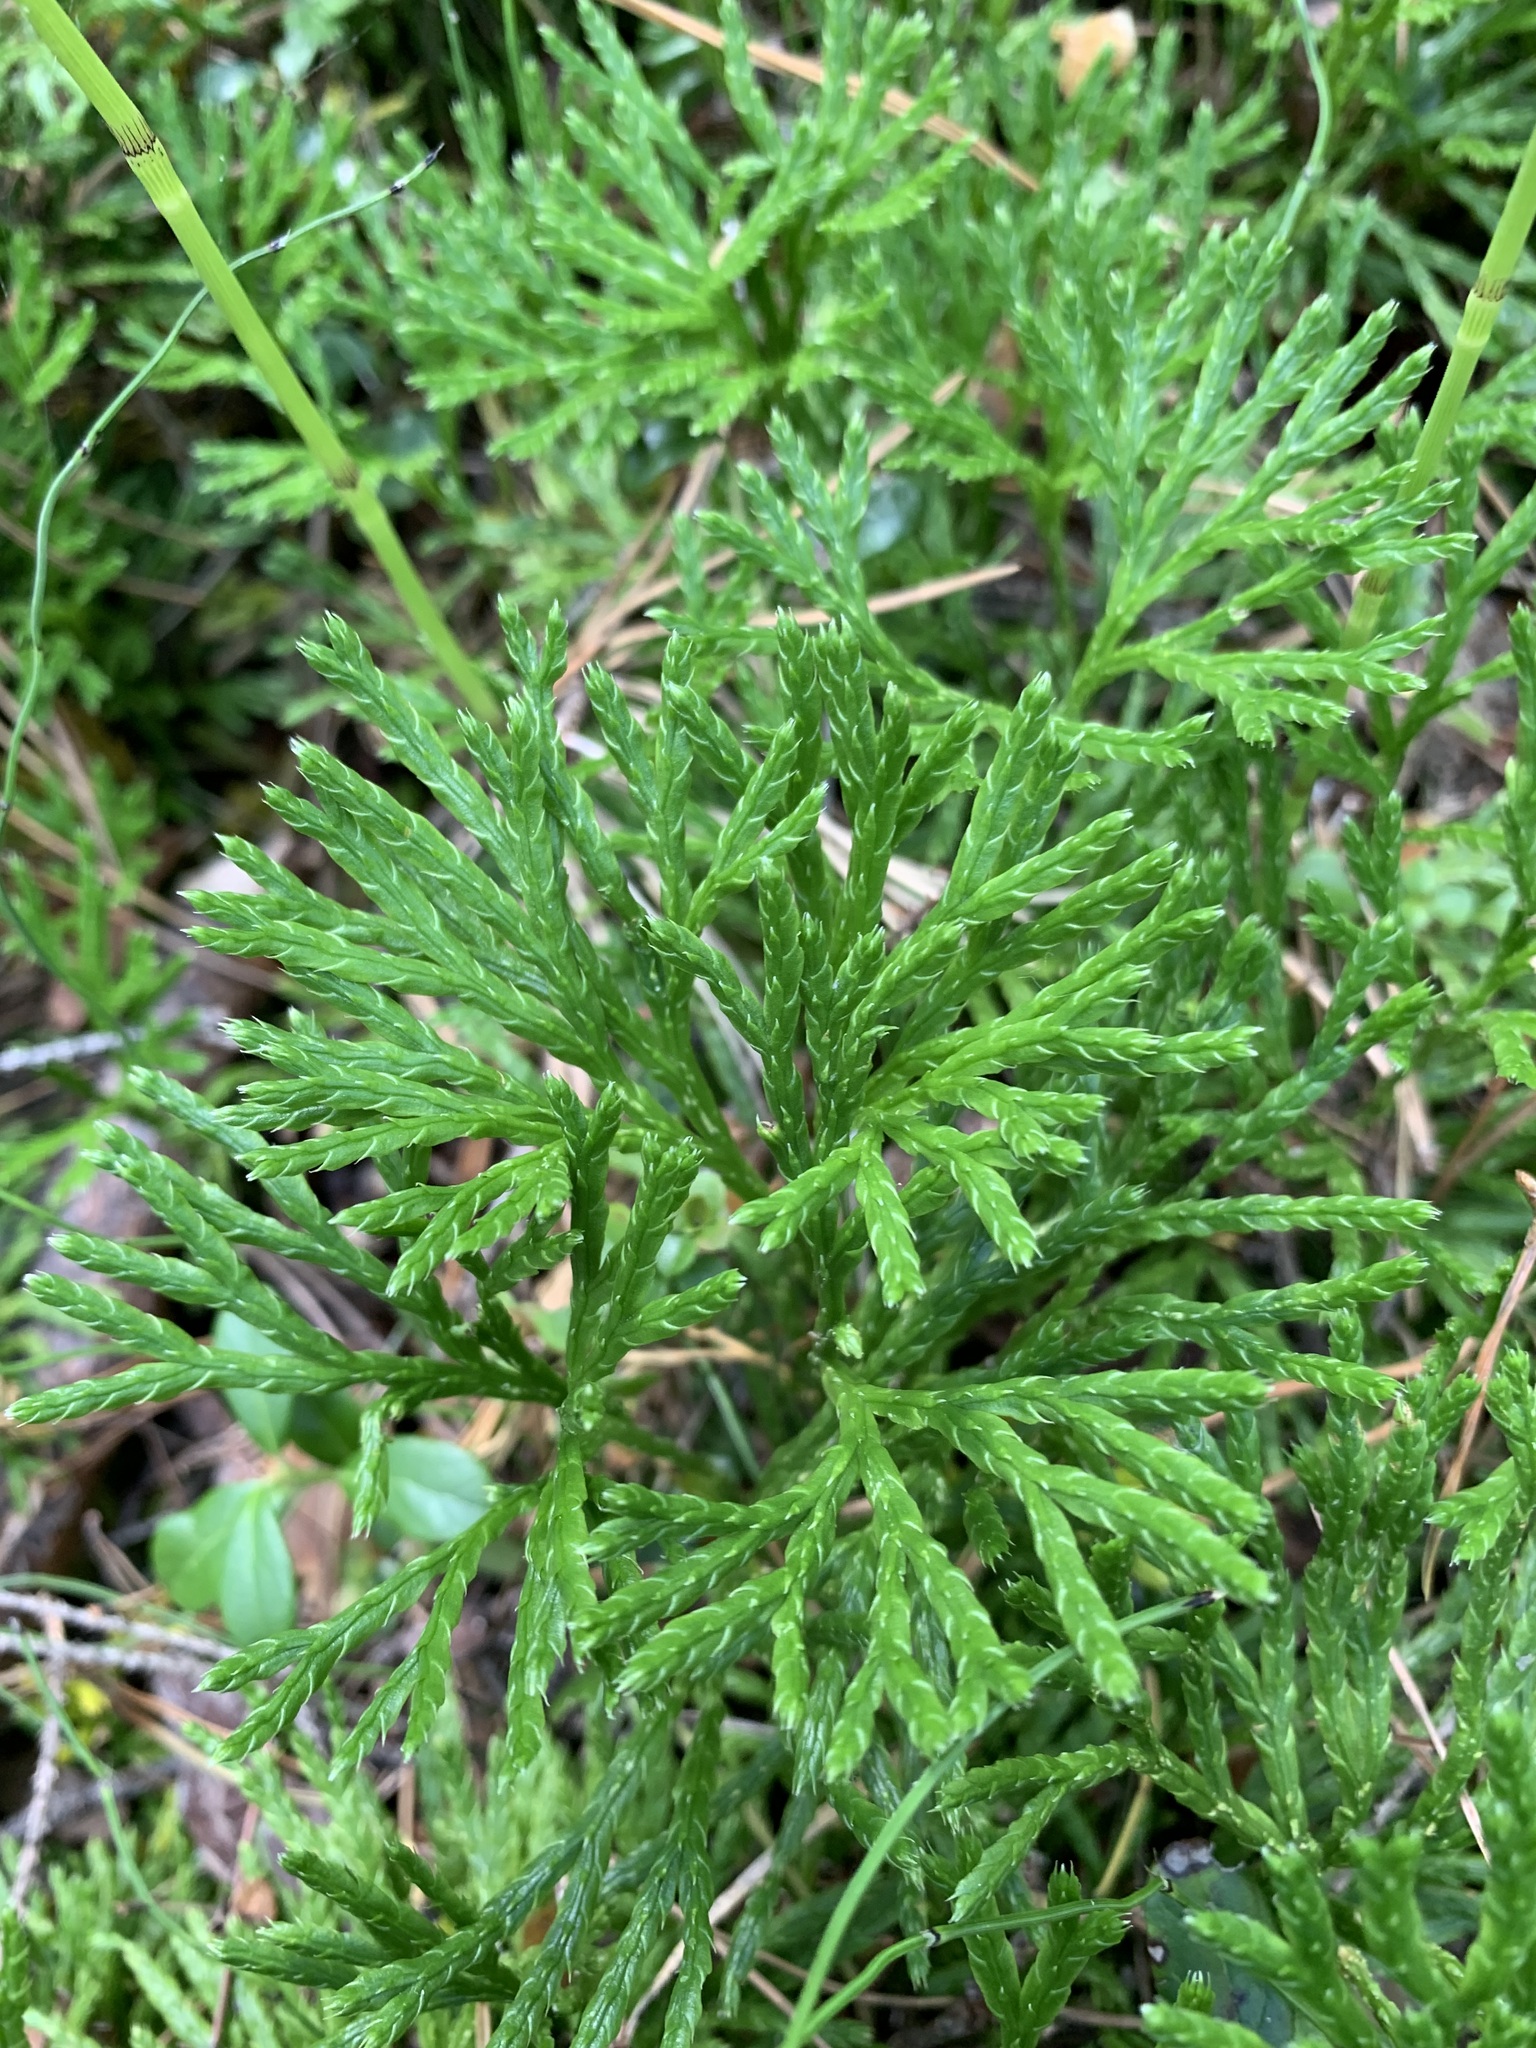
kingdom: Plantae
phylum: Tracheophyta
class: Lycopodiopsida
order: Lycopodiales
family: Lycopodiaceae
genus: Diphasiastrum
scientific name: Diphasiastrum complanatum
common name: Northern running-pine
